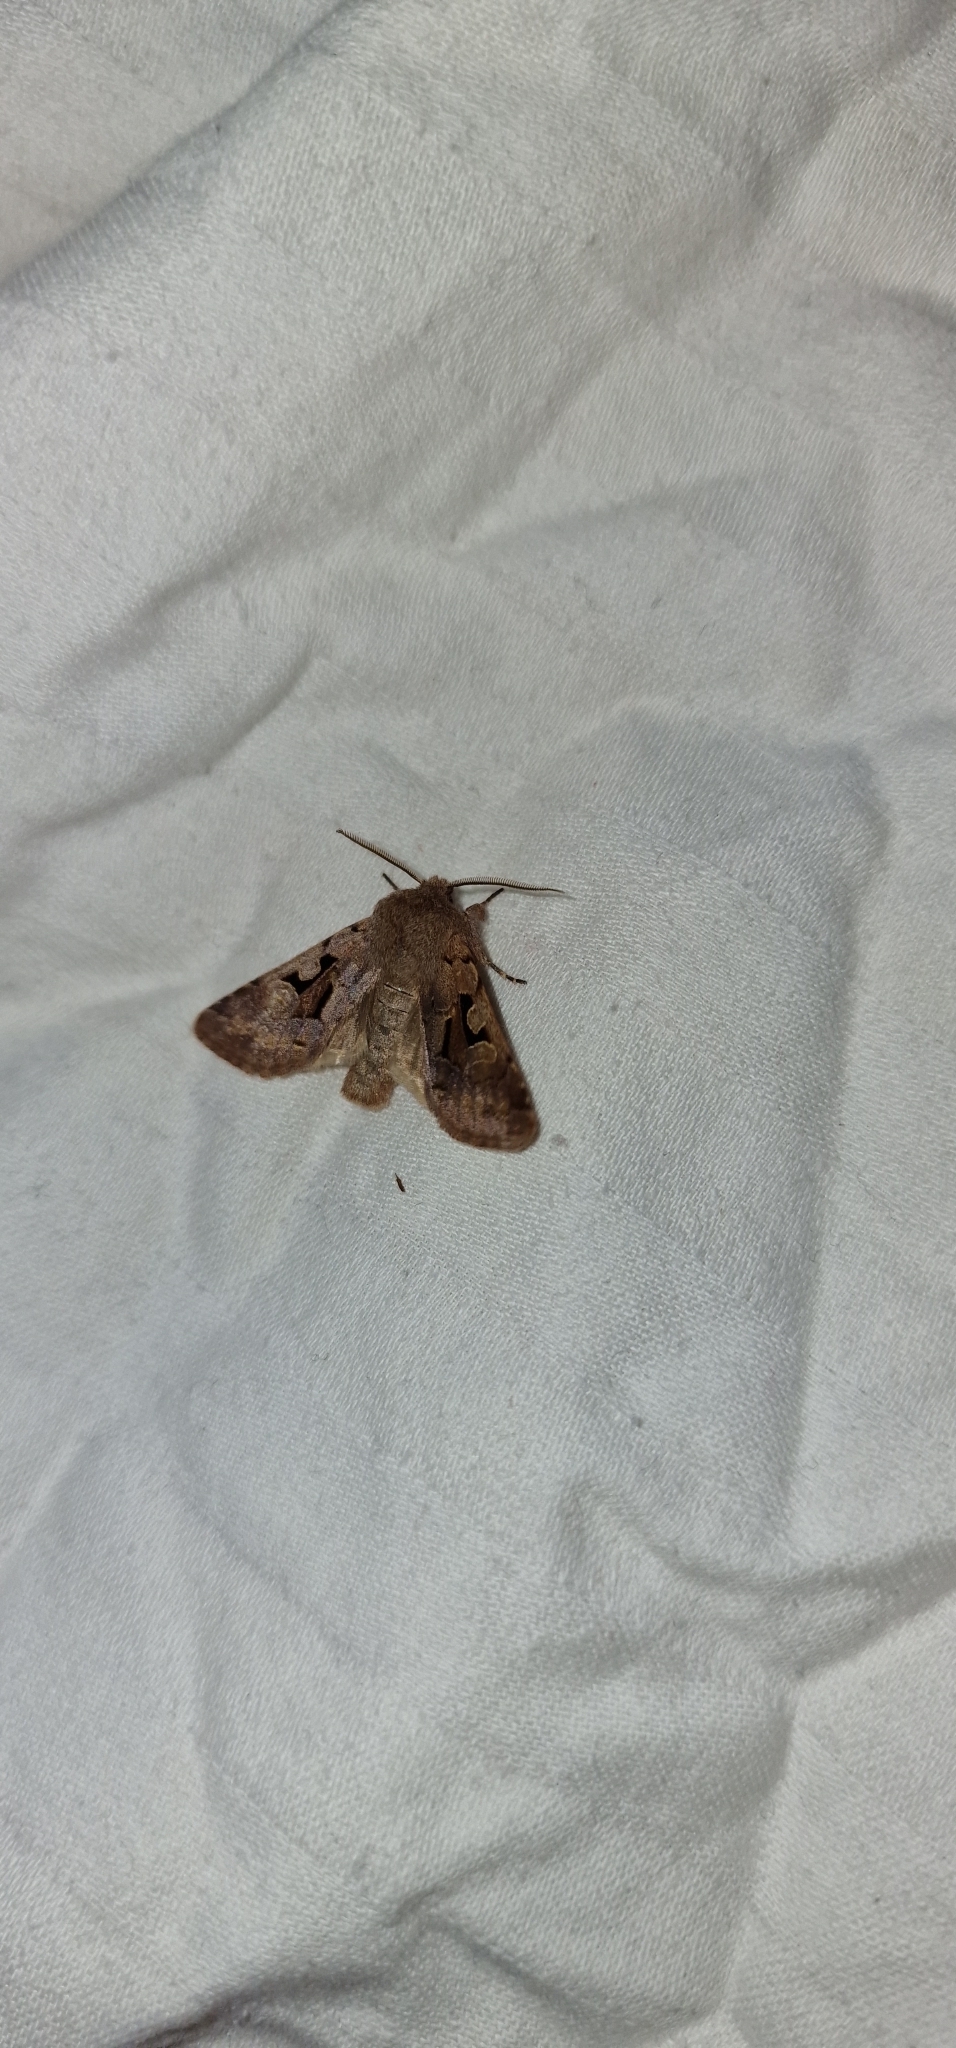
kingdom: Animalia
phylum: Arthropoda
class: Insecta
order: Lepidoptera
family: Noctuidae
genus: Orthosia
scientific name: Orthosia gothica
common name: Hebrew character
